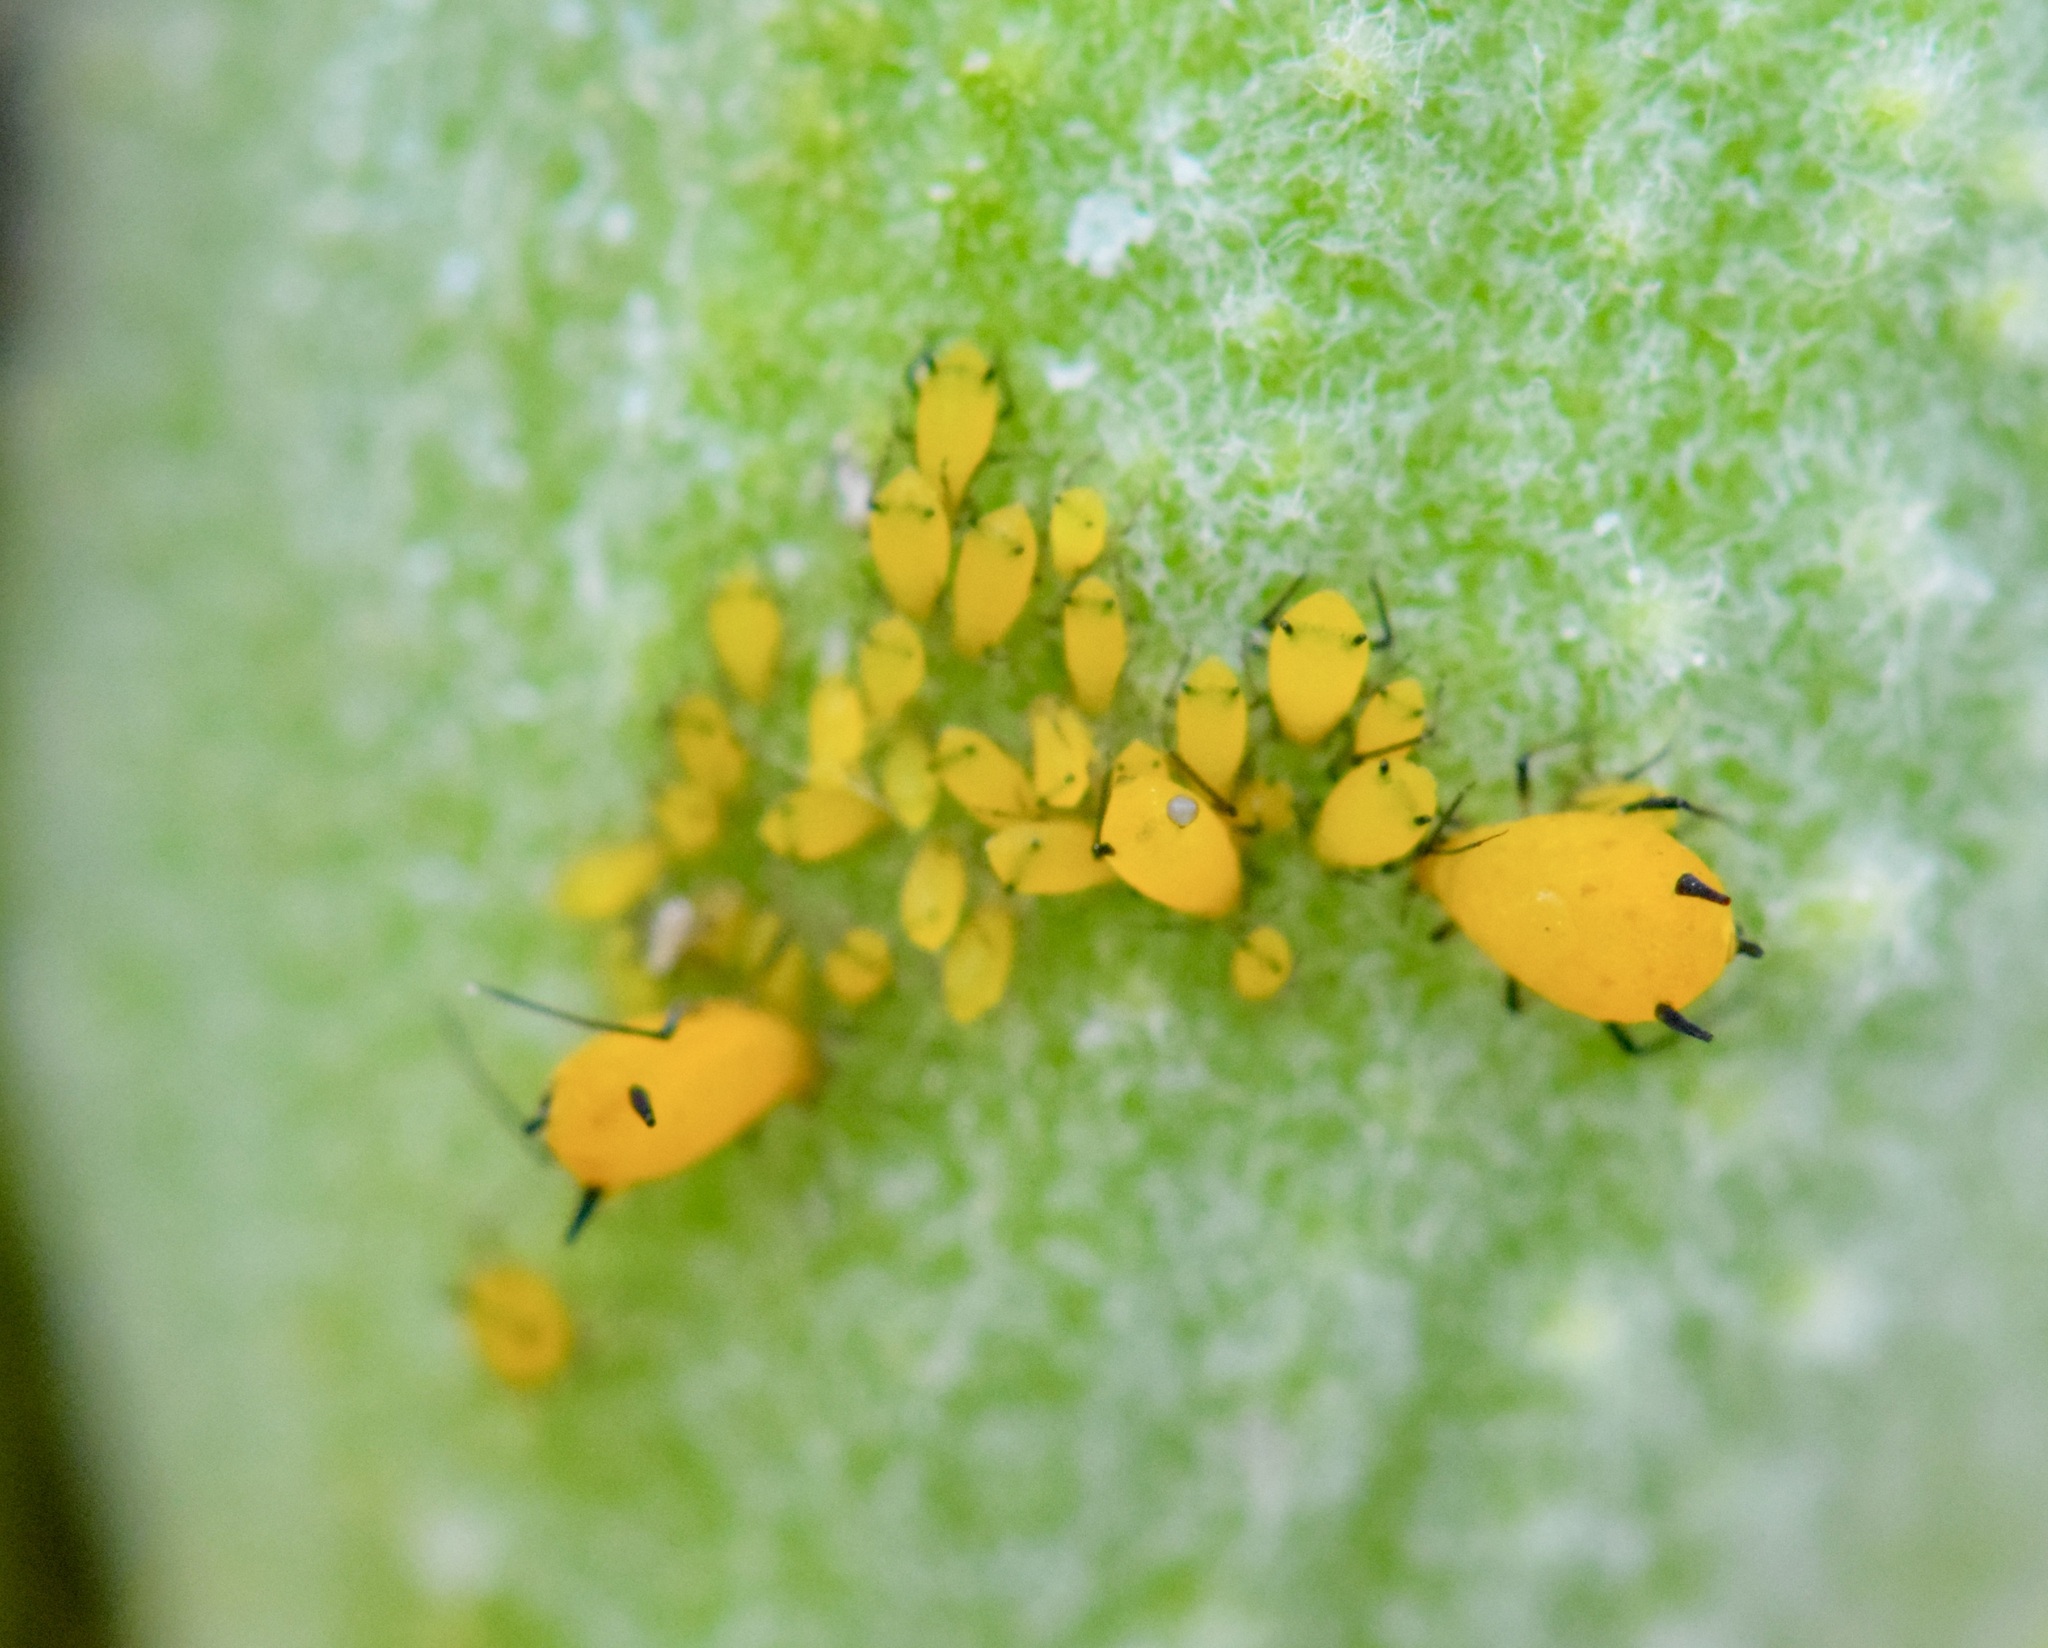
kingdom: Animalia
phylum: Arthropoda
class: Insecta
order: Hemiptera
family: Aphididae
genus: Aphis
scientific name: Aphis nerii
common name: Oleander aphid
